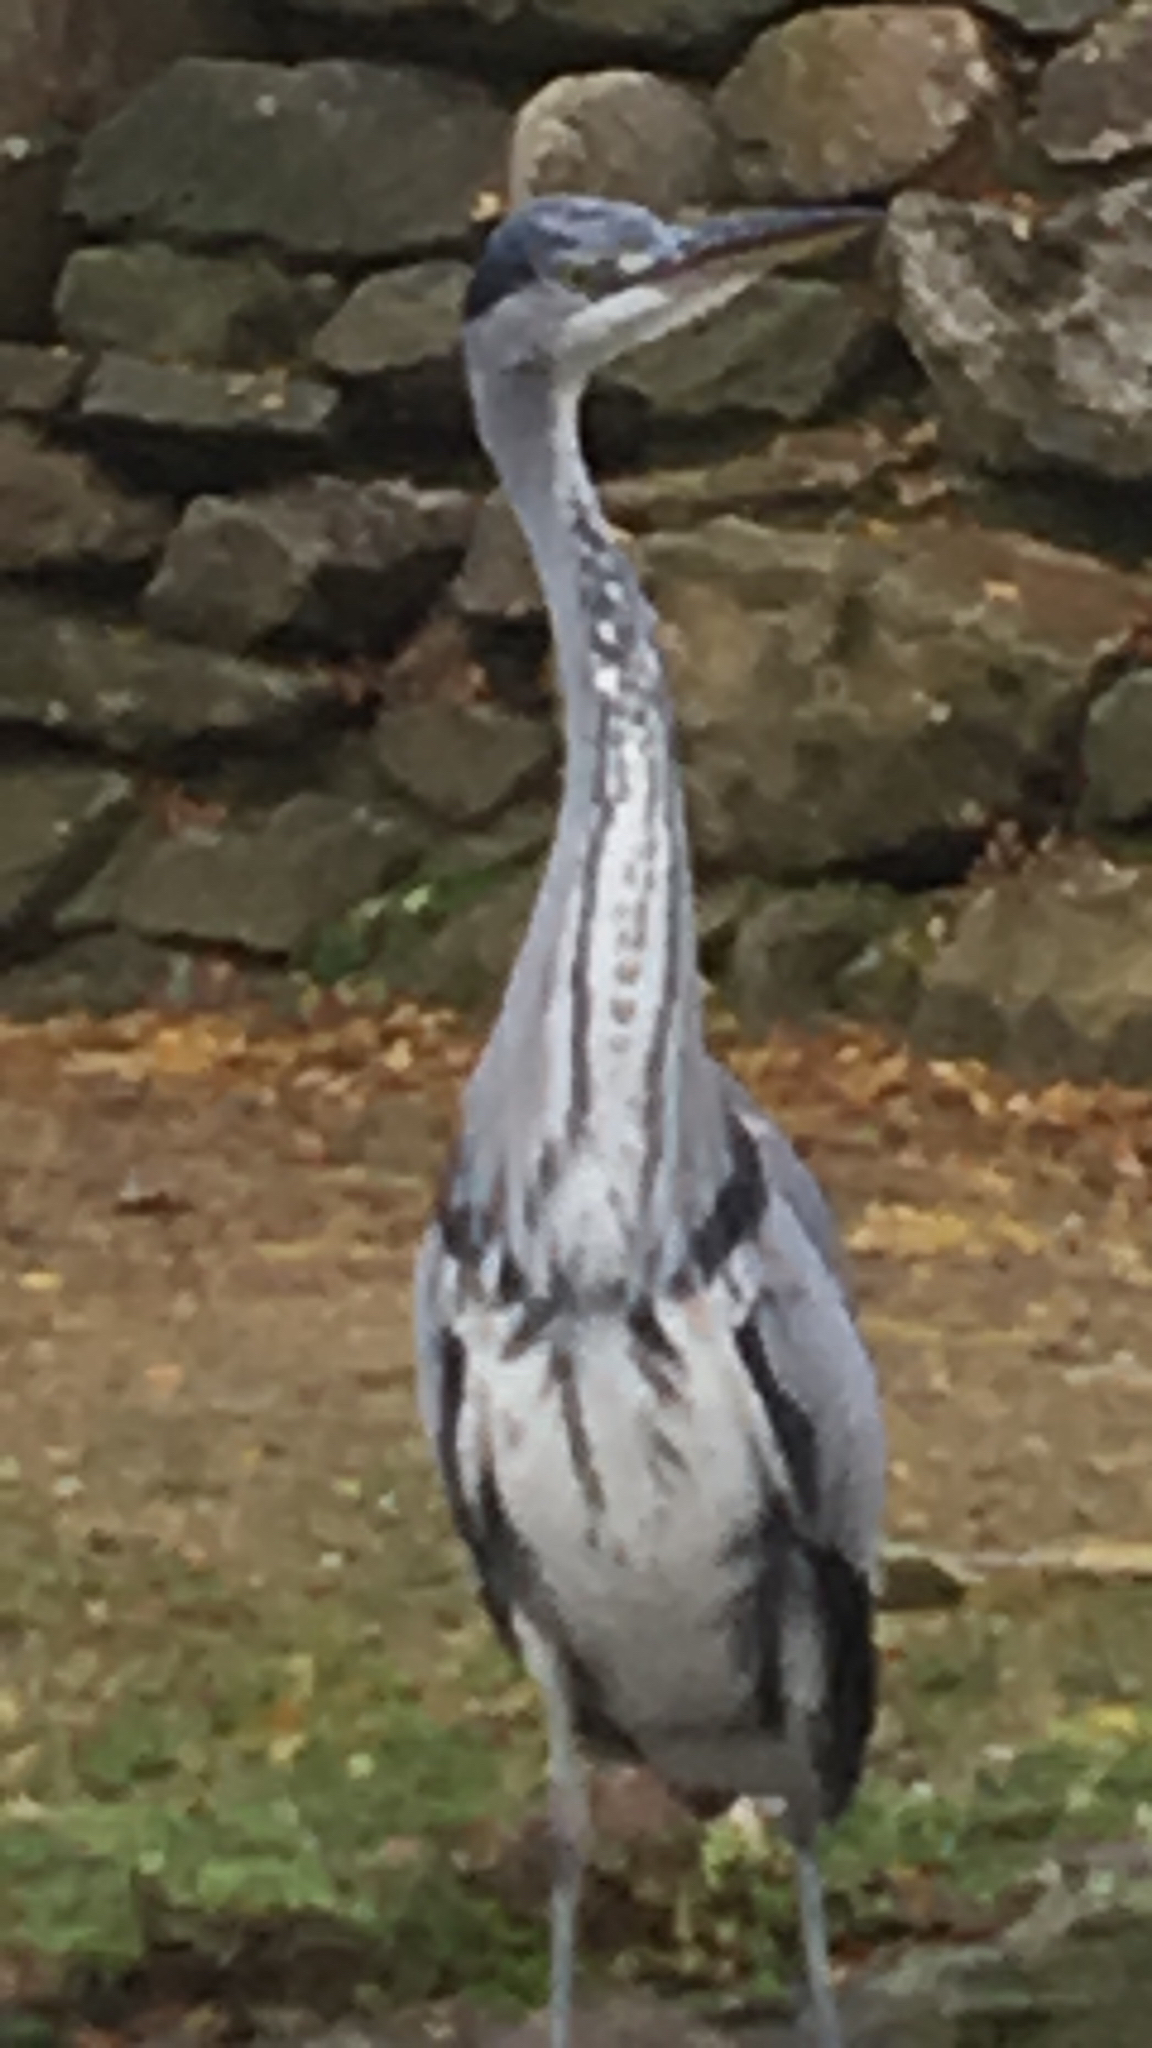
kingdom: Animalia
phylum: Chordata
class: Aves
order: Pelecaniformes
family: Ardeidae
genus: Ardea
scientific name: Ardea cinerea
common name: Grey heron
